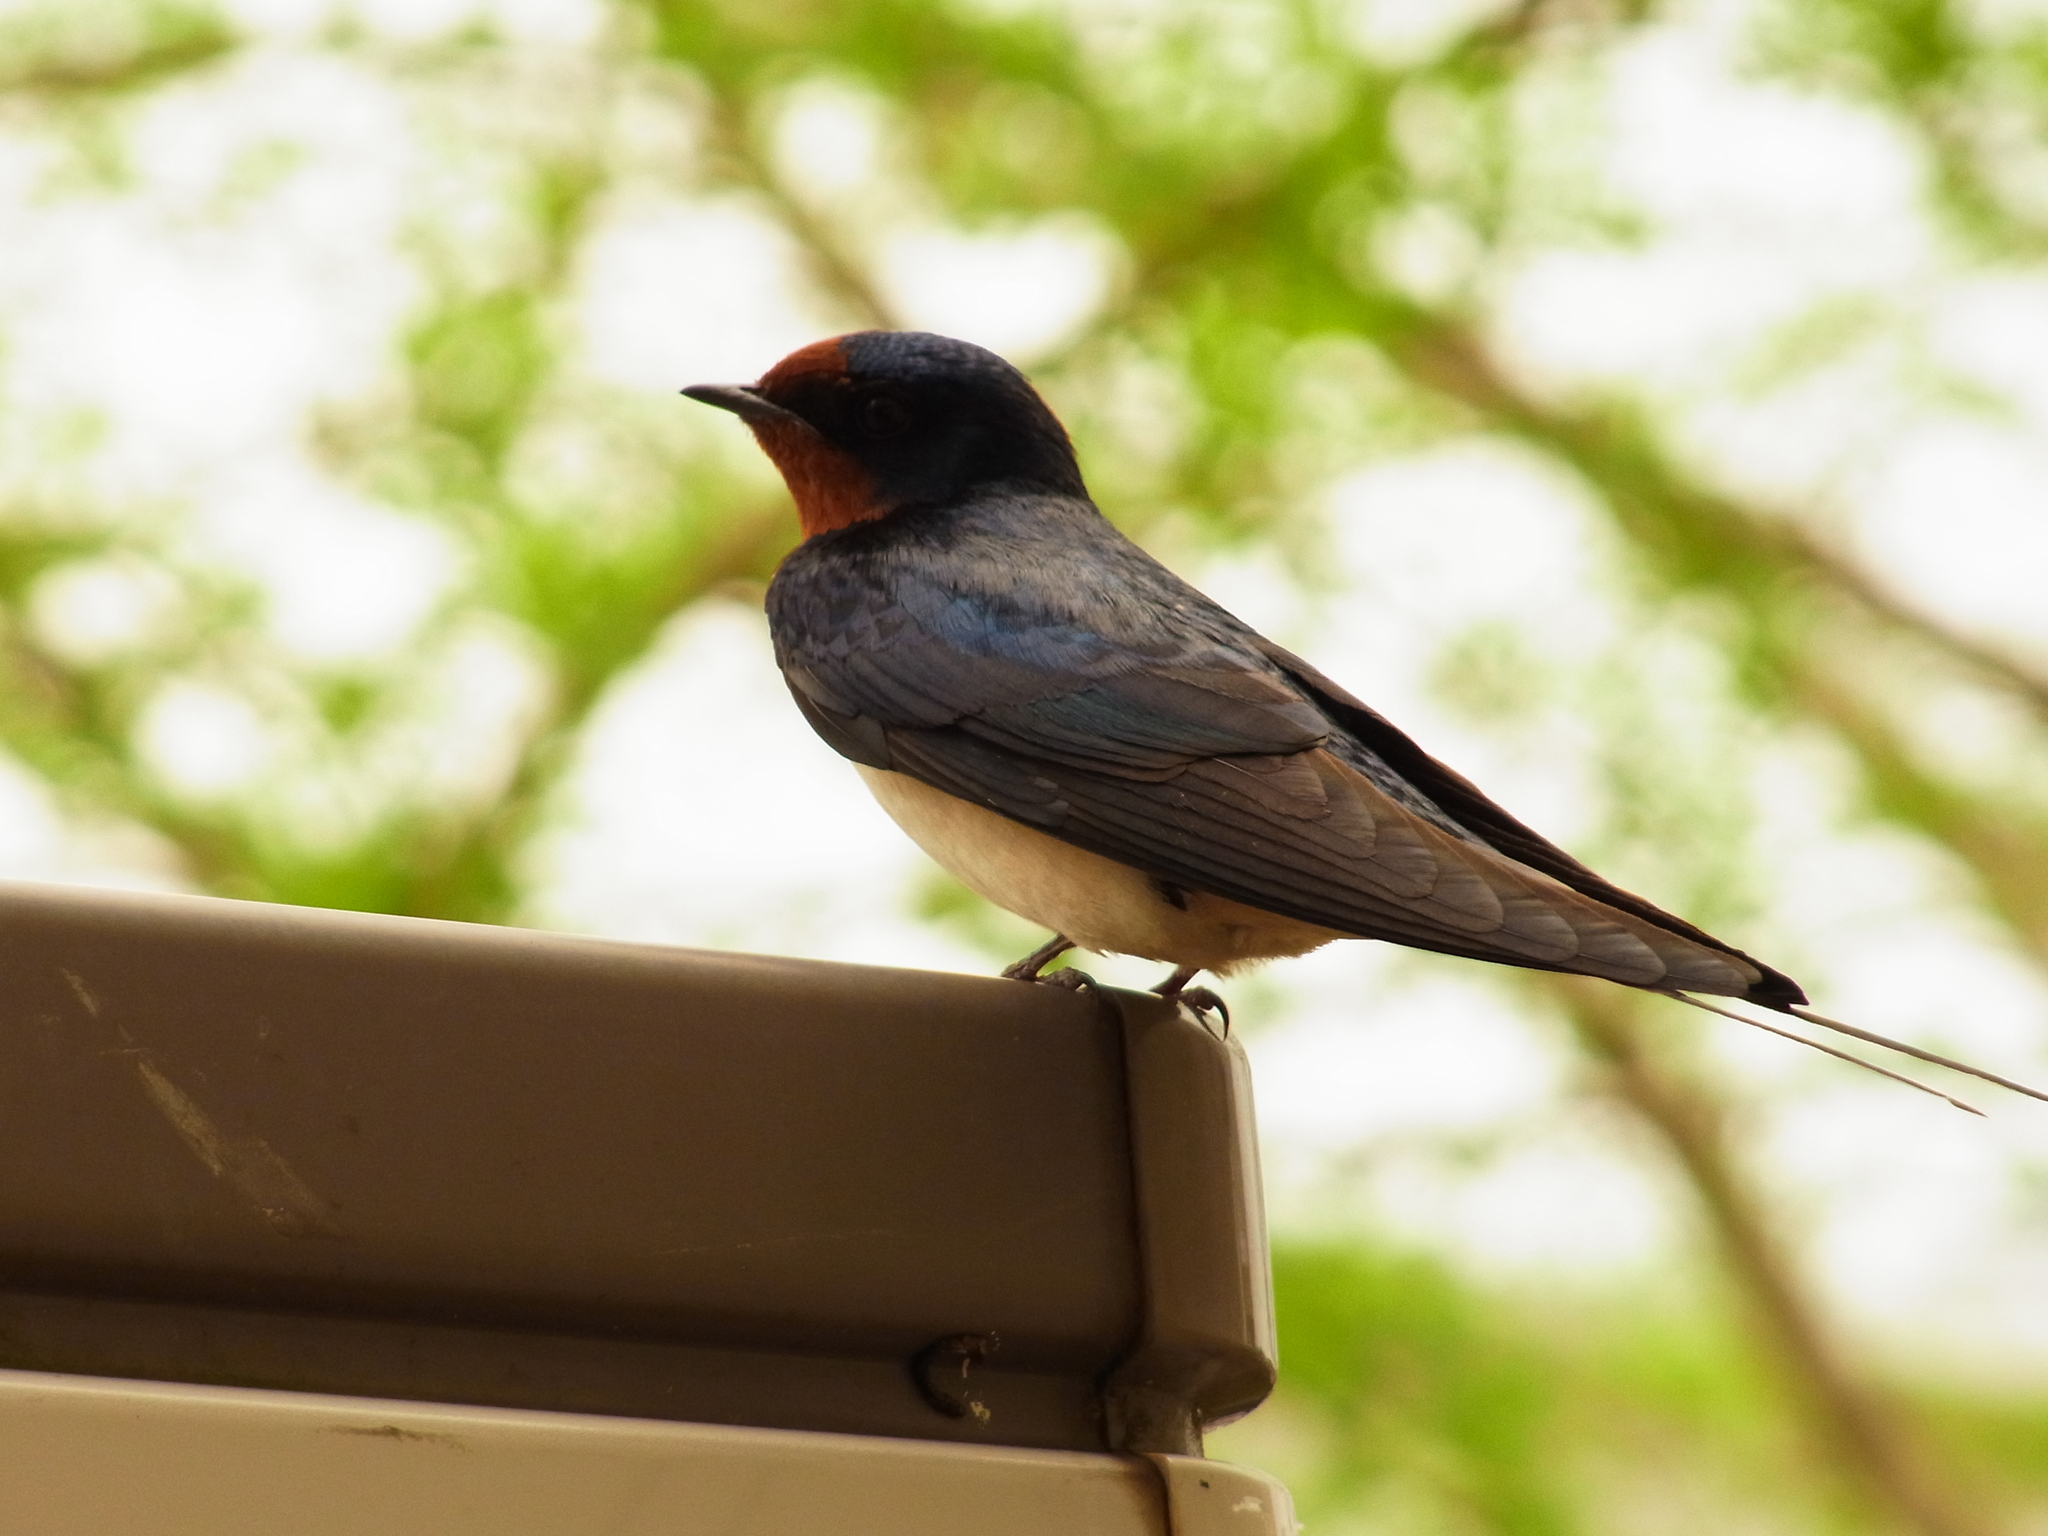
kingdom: Animalia
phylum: Chordata
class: Aves
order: Passeriformes
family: Hirundinidae
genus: Hirundo
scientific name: Hirundo rustica
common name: Barn swallow
